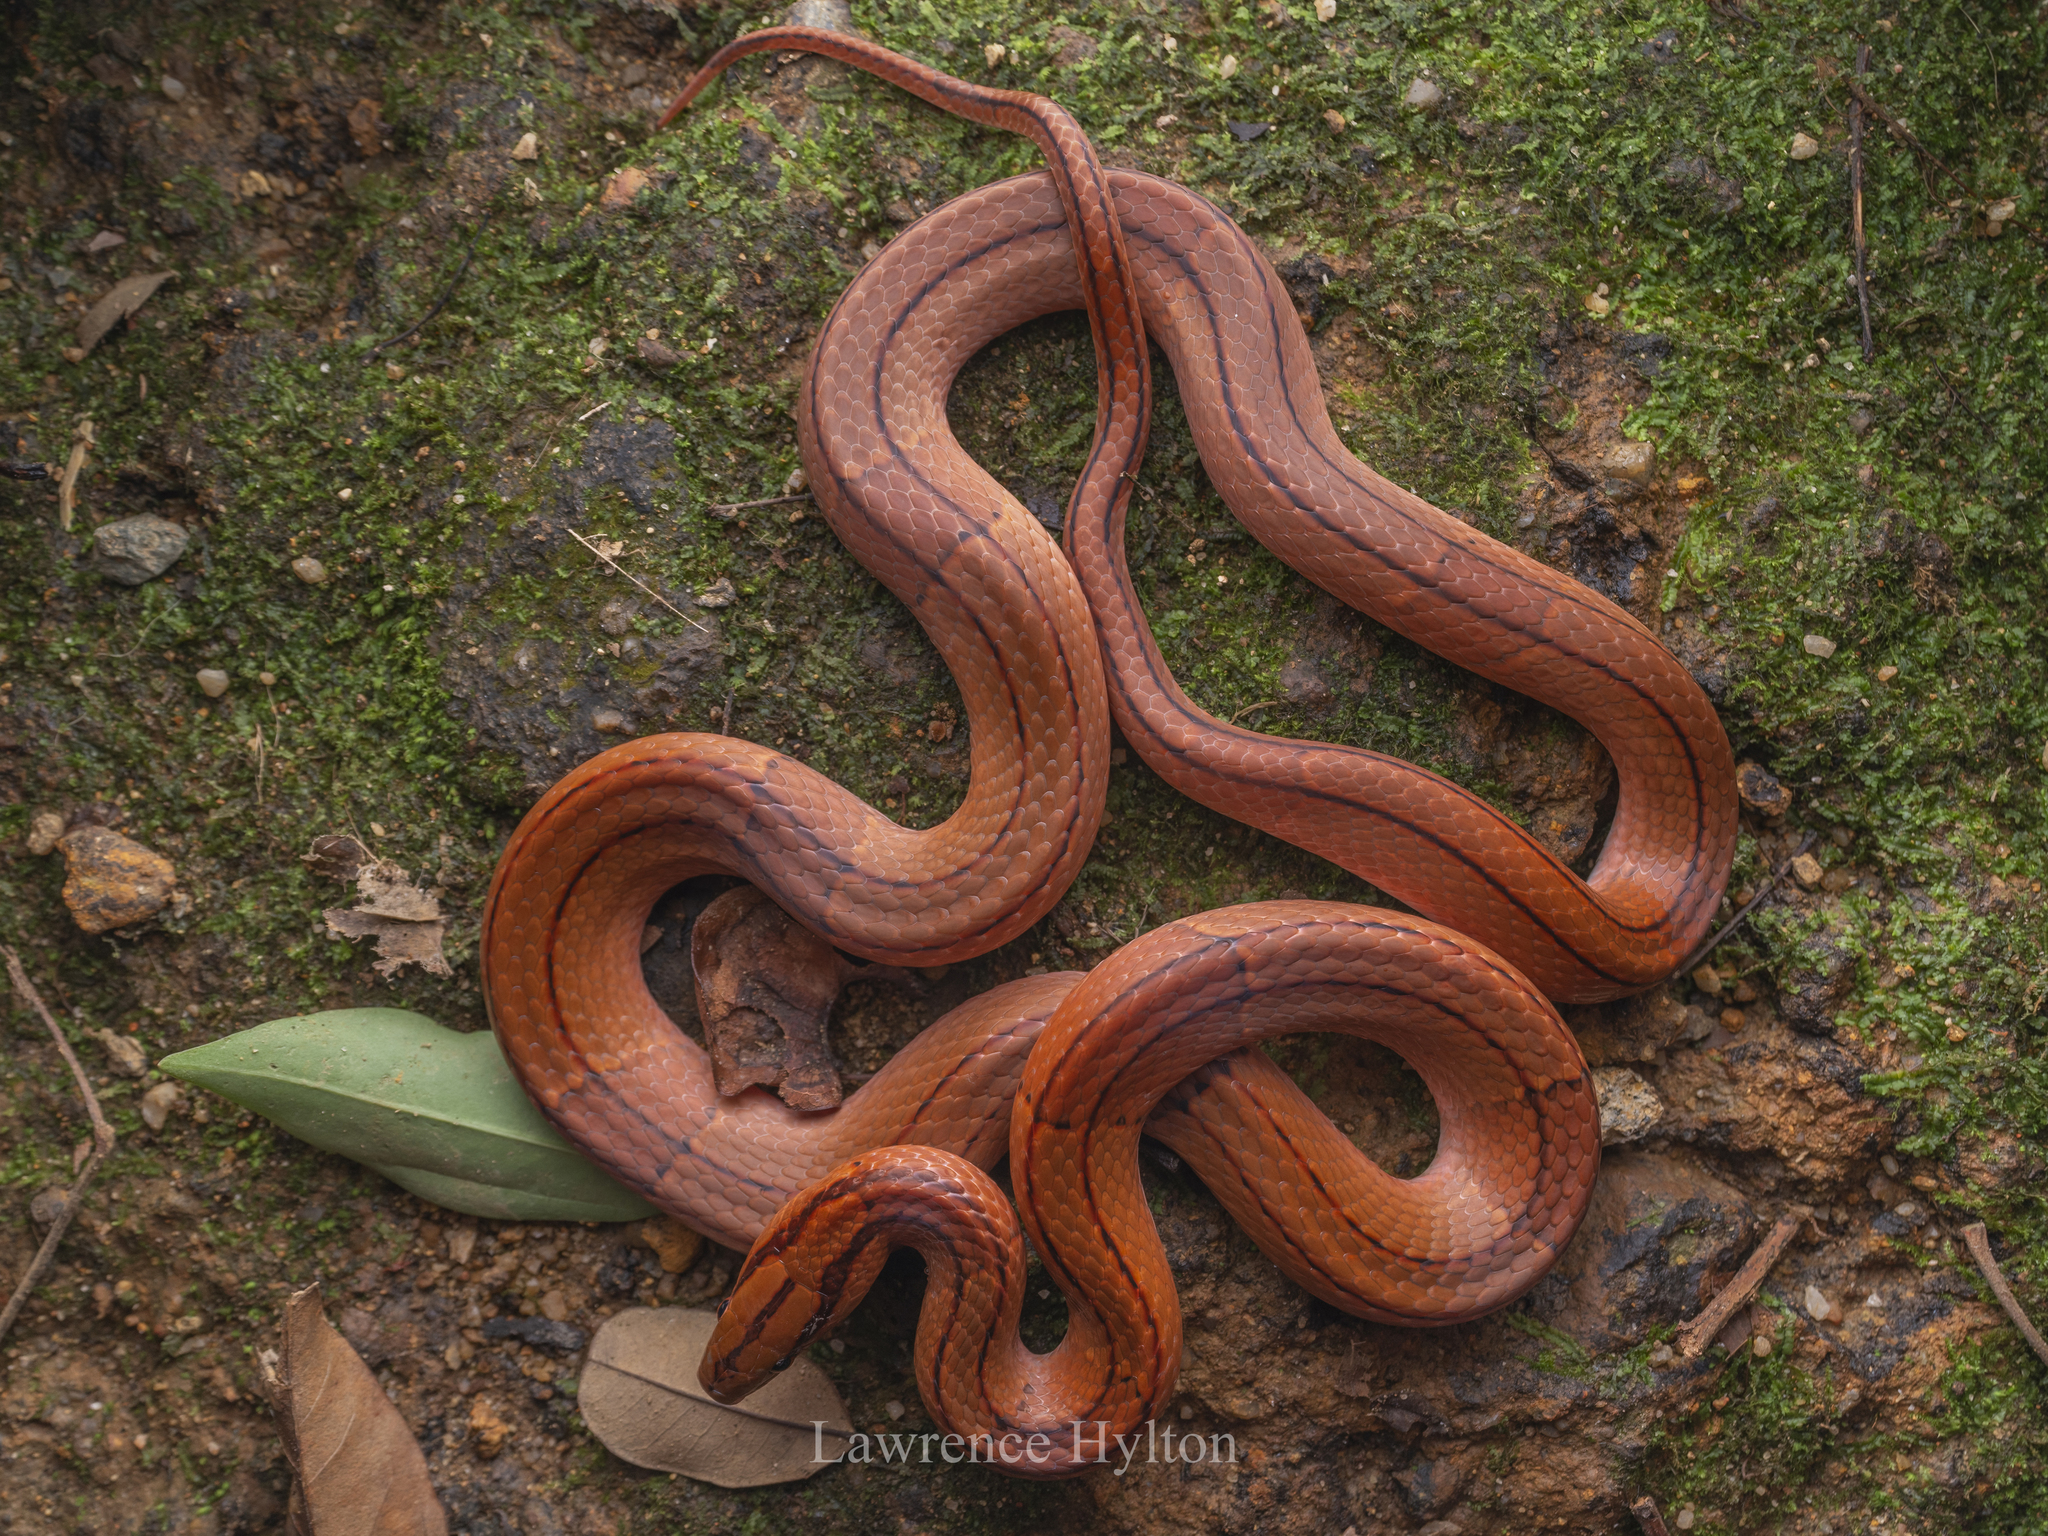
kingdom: Animalia
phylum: Chordata
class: Squamata
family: Colubridae
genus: Oreocryptophis
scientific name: Oreocryptophis porphyraceus
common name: Black-banded trinket snake
